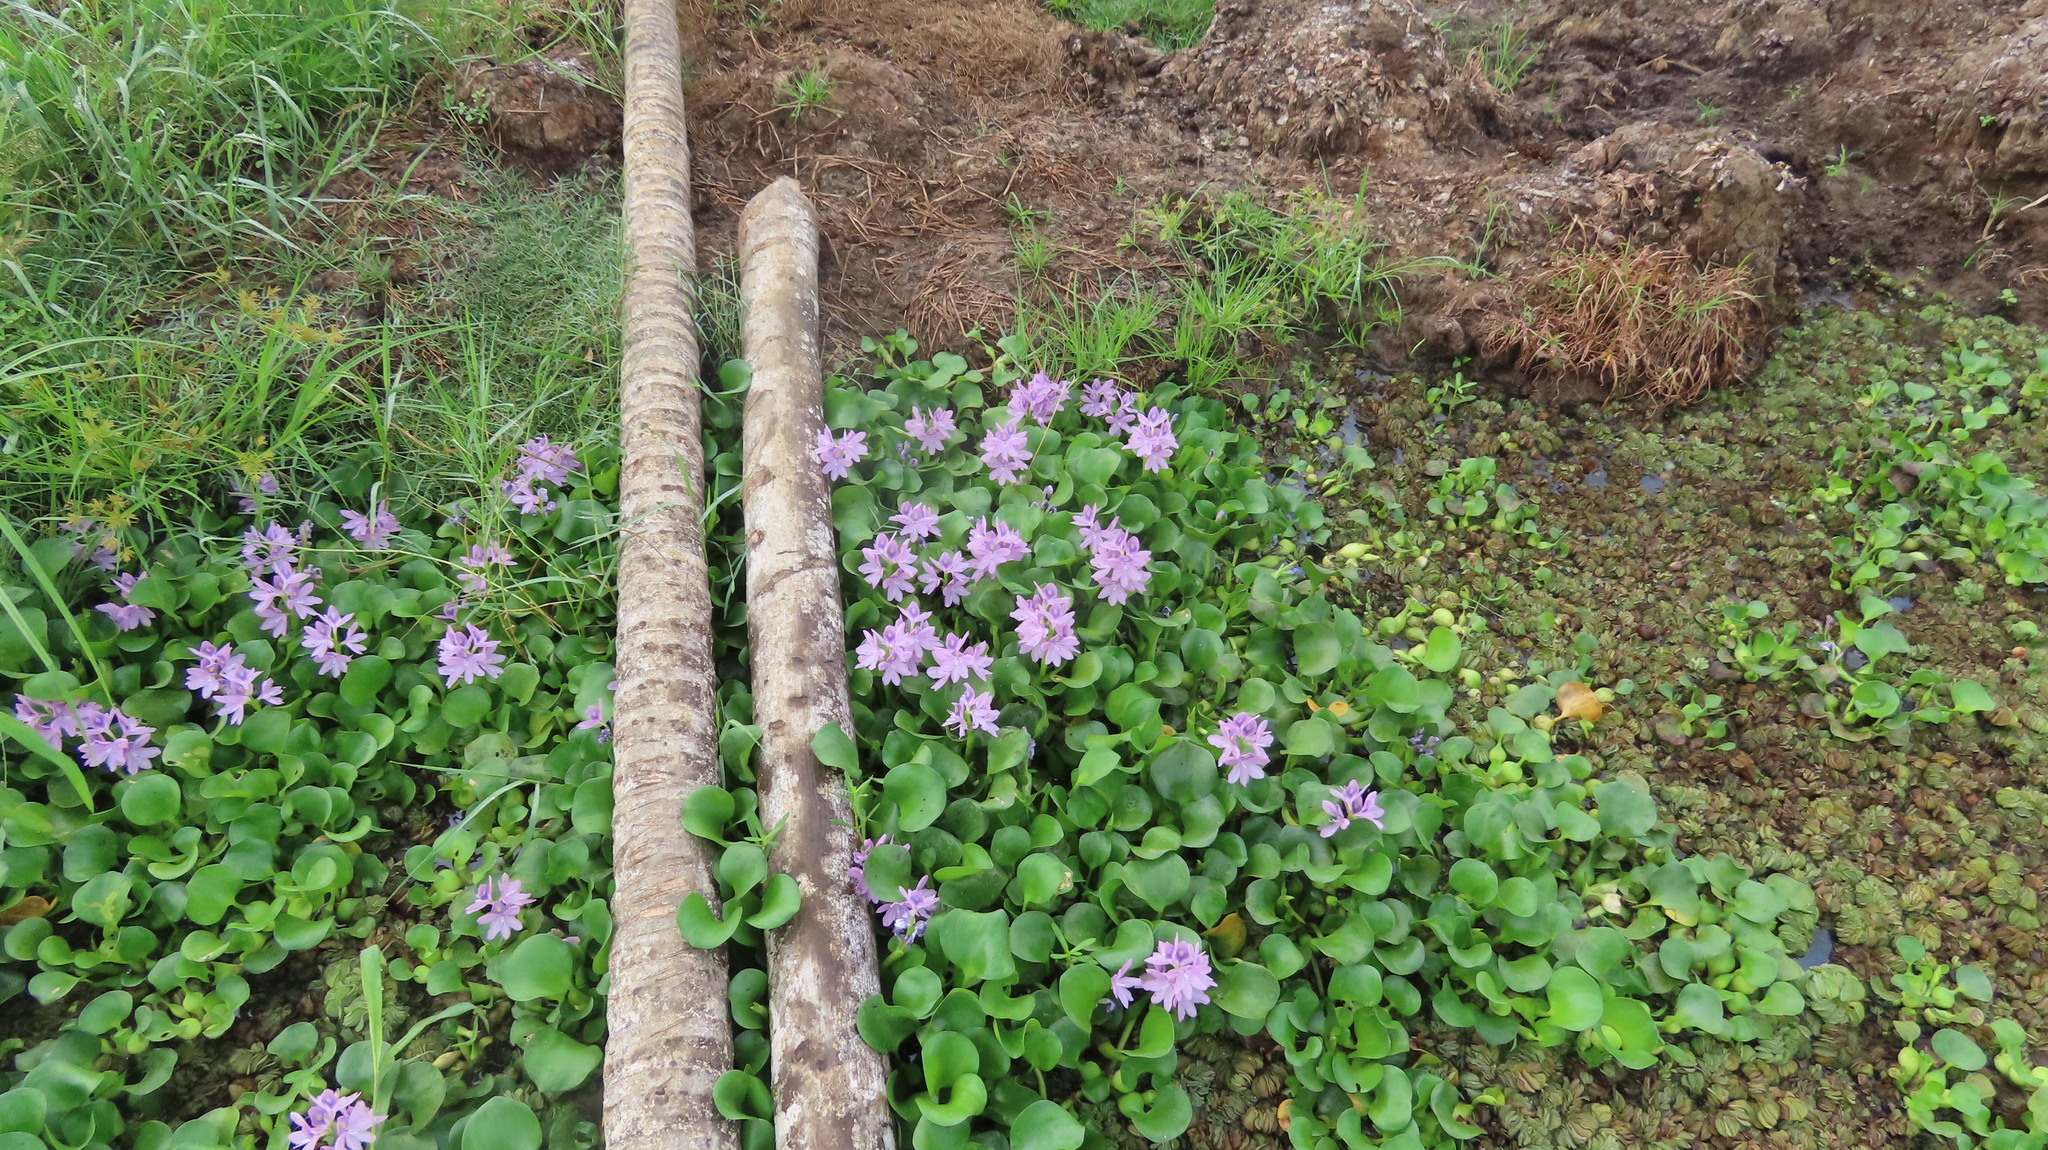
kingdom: Plantae
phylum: Tracheophyta
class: Liliopsida
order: Commelinales
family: Pontederiaceae
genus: Pontederia
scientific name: Pontederia crassipes
